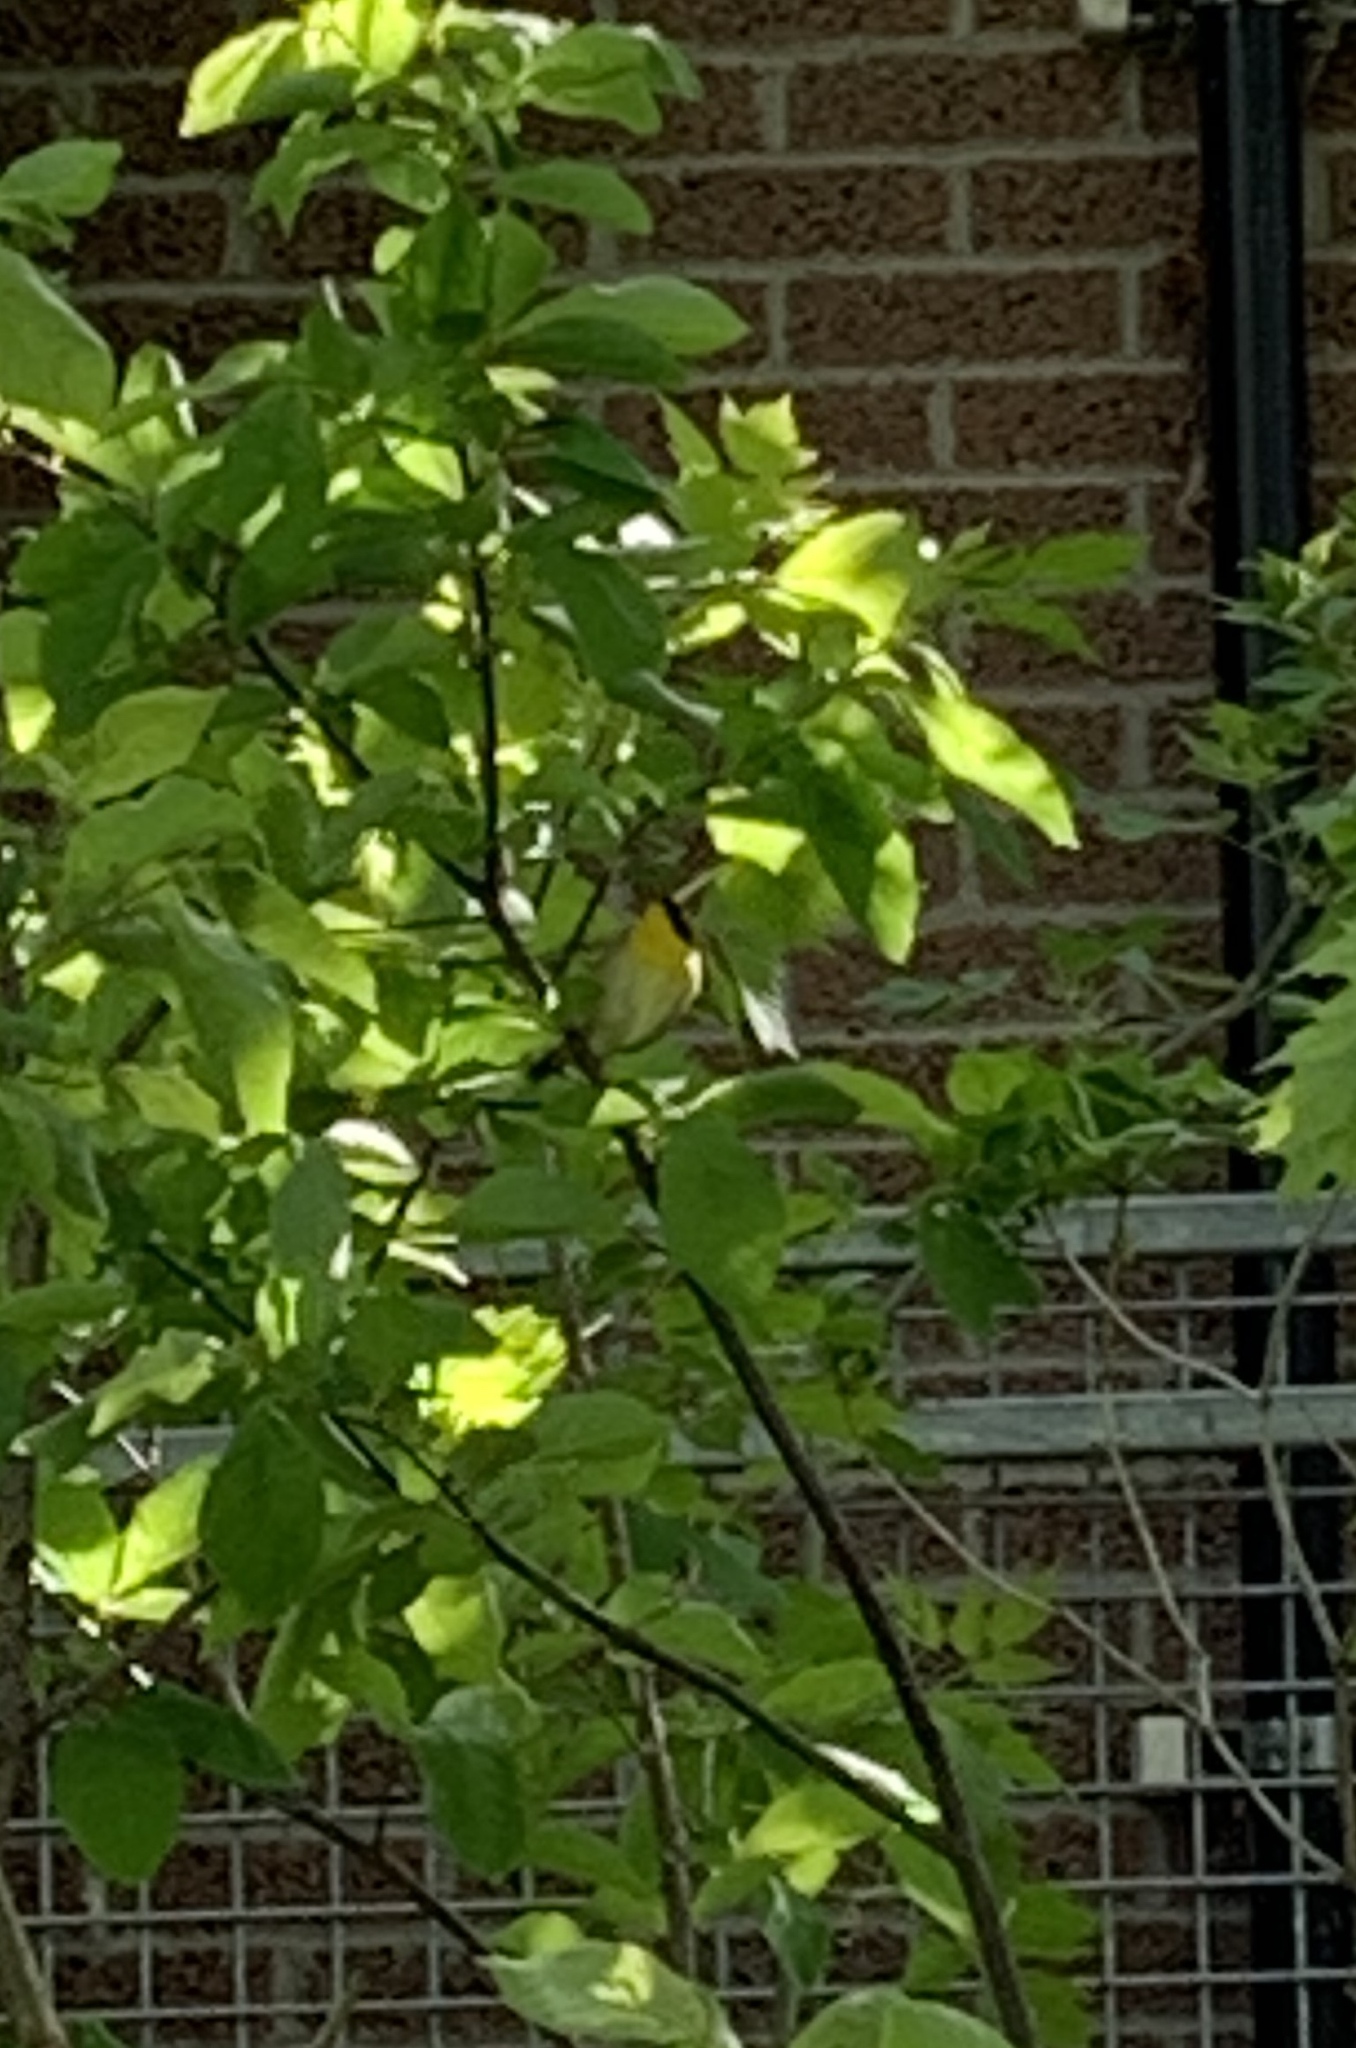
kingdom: Animalia
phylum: Chordata
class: Aves
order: Passeriformes
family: Parulidae
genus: Geothlypis
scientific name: Geothlypis trichas
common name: Common yellowthroat
